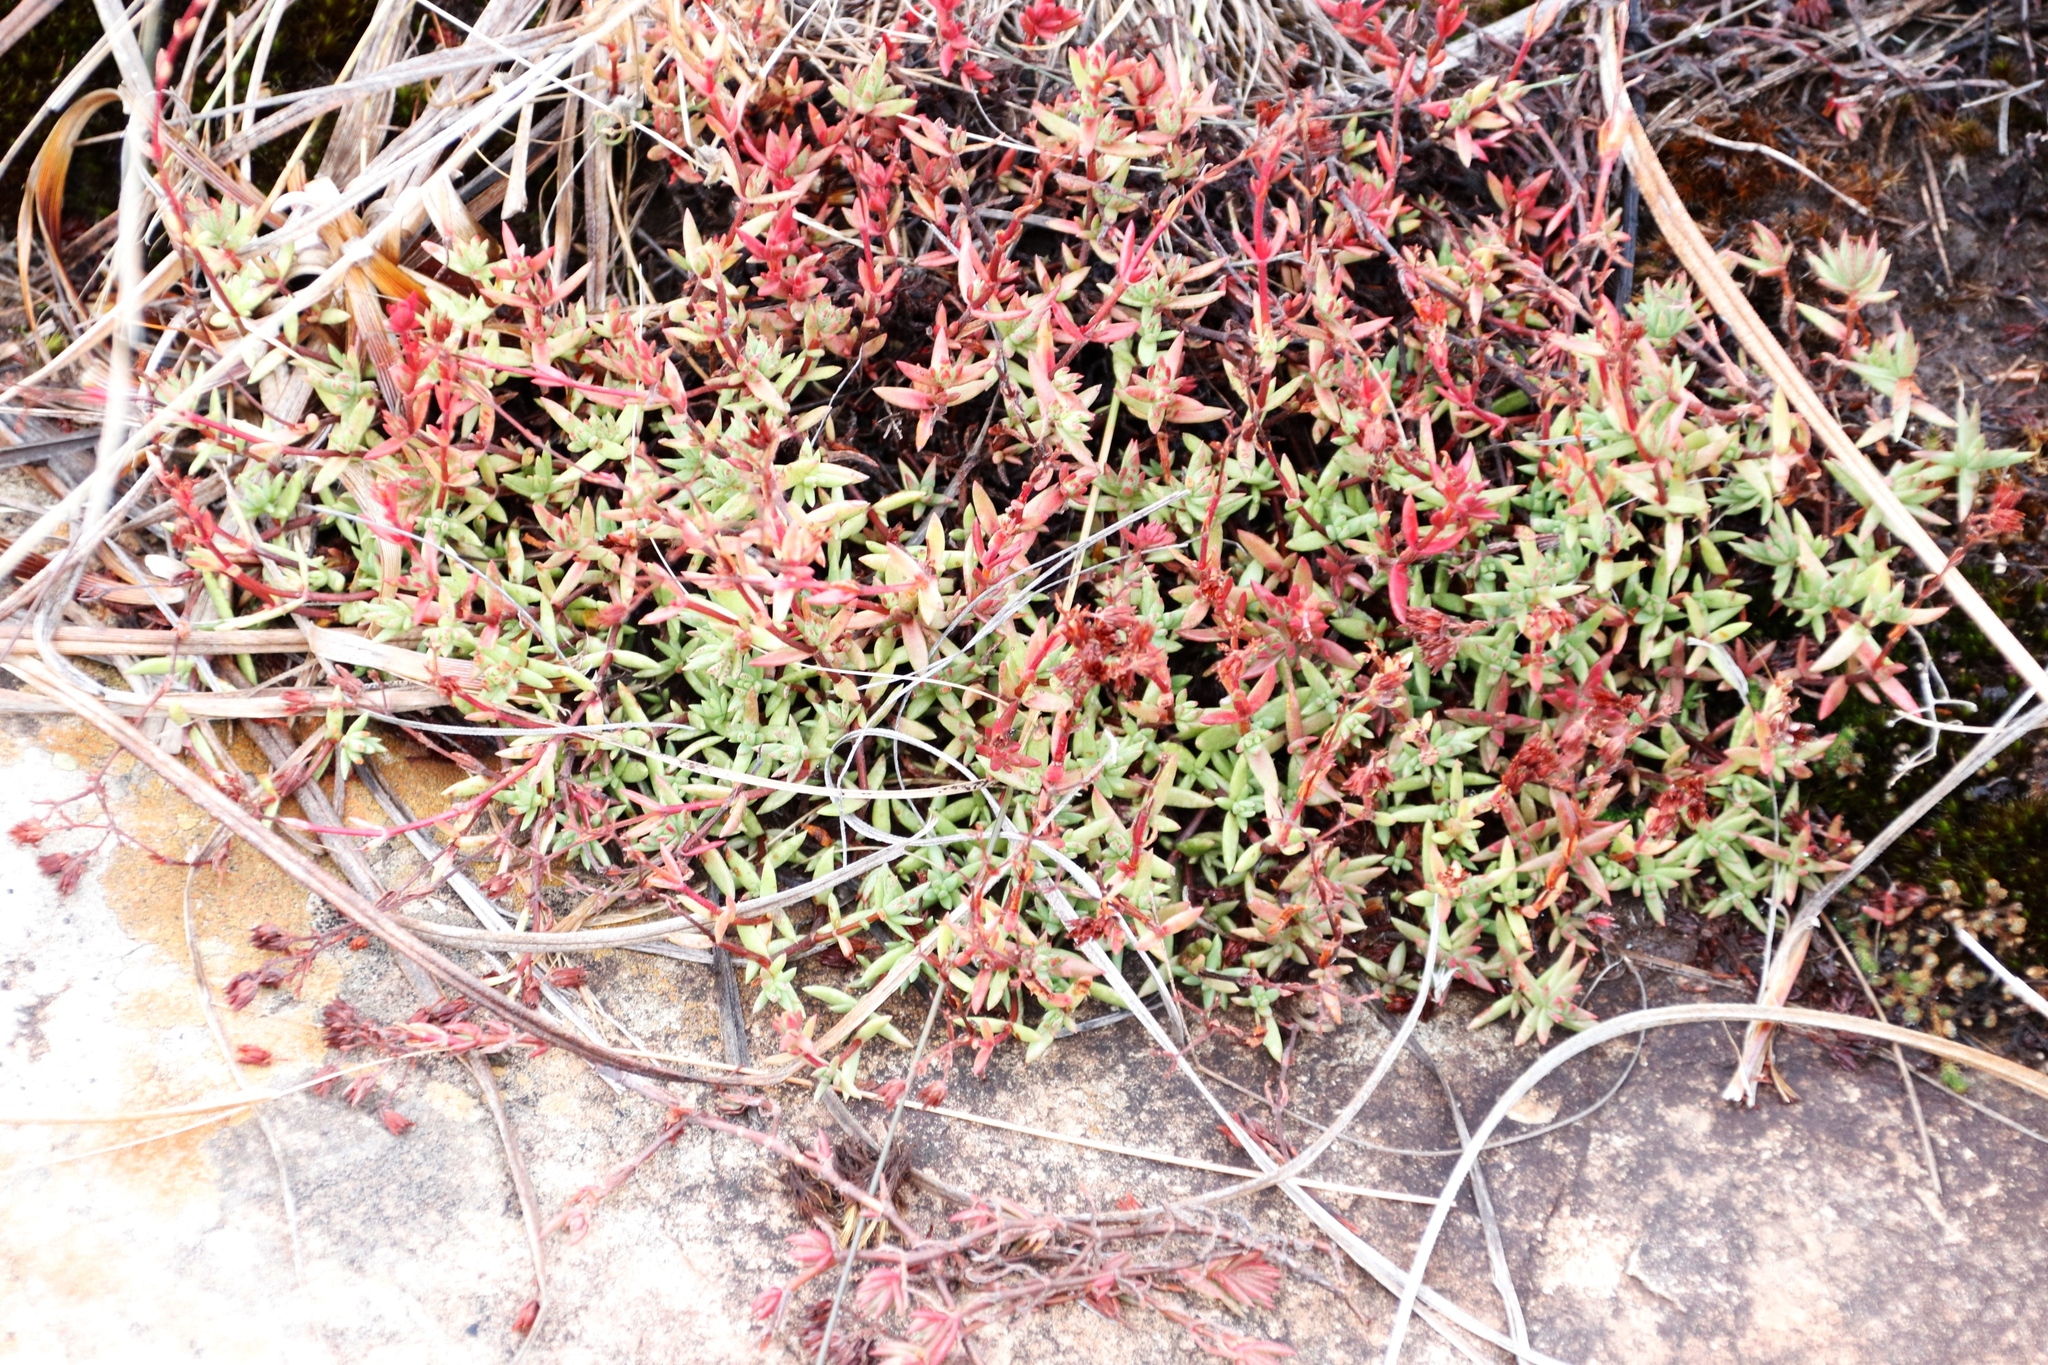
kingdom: Plantae
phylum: Tracheophyta
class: Magnoliopsida
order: Saxifragales
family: Crassulaceae
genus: Crassula
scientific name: Crassula dependens
